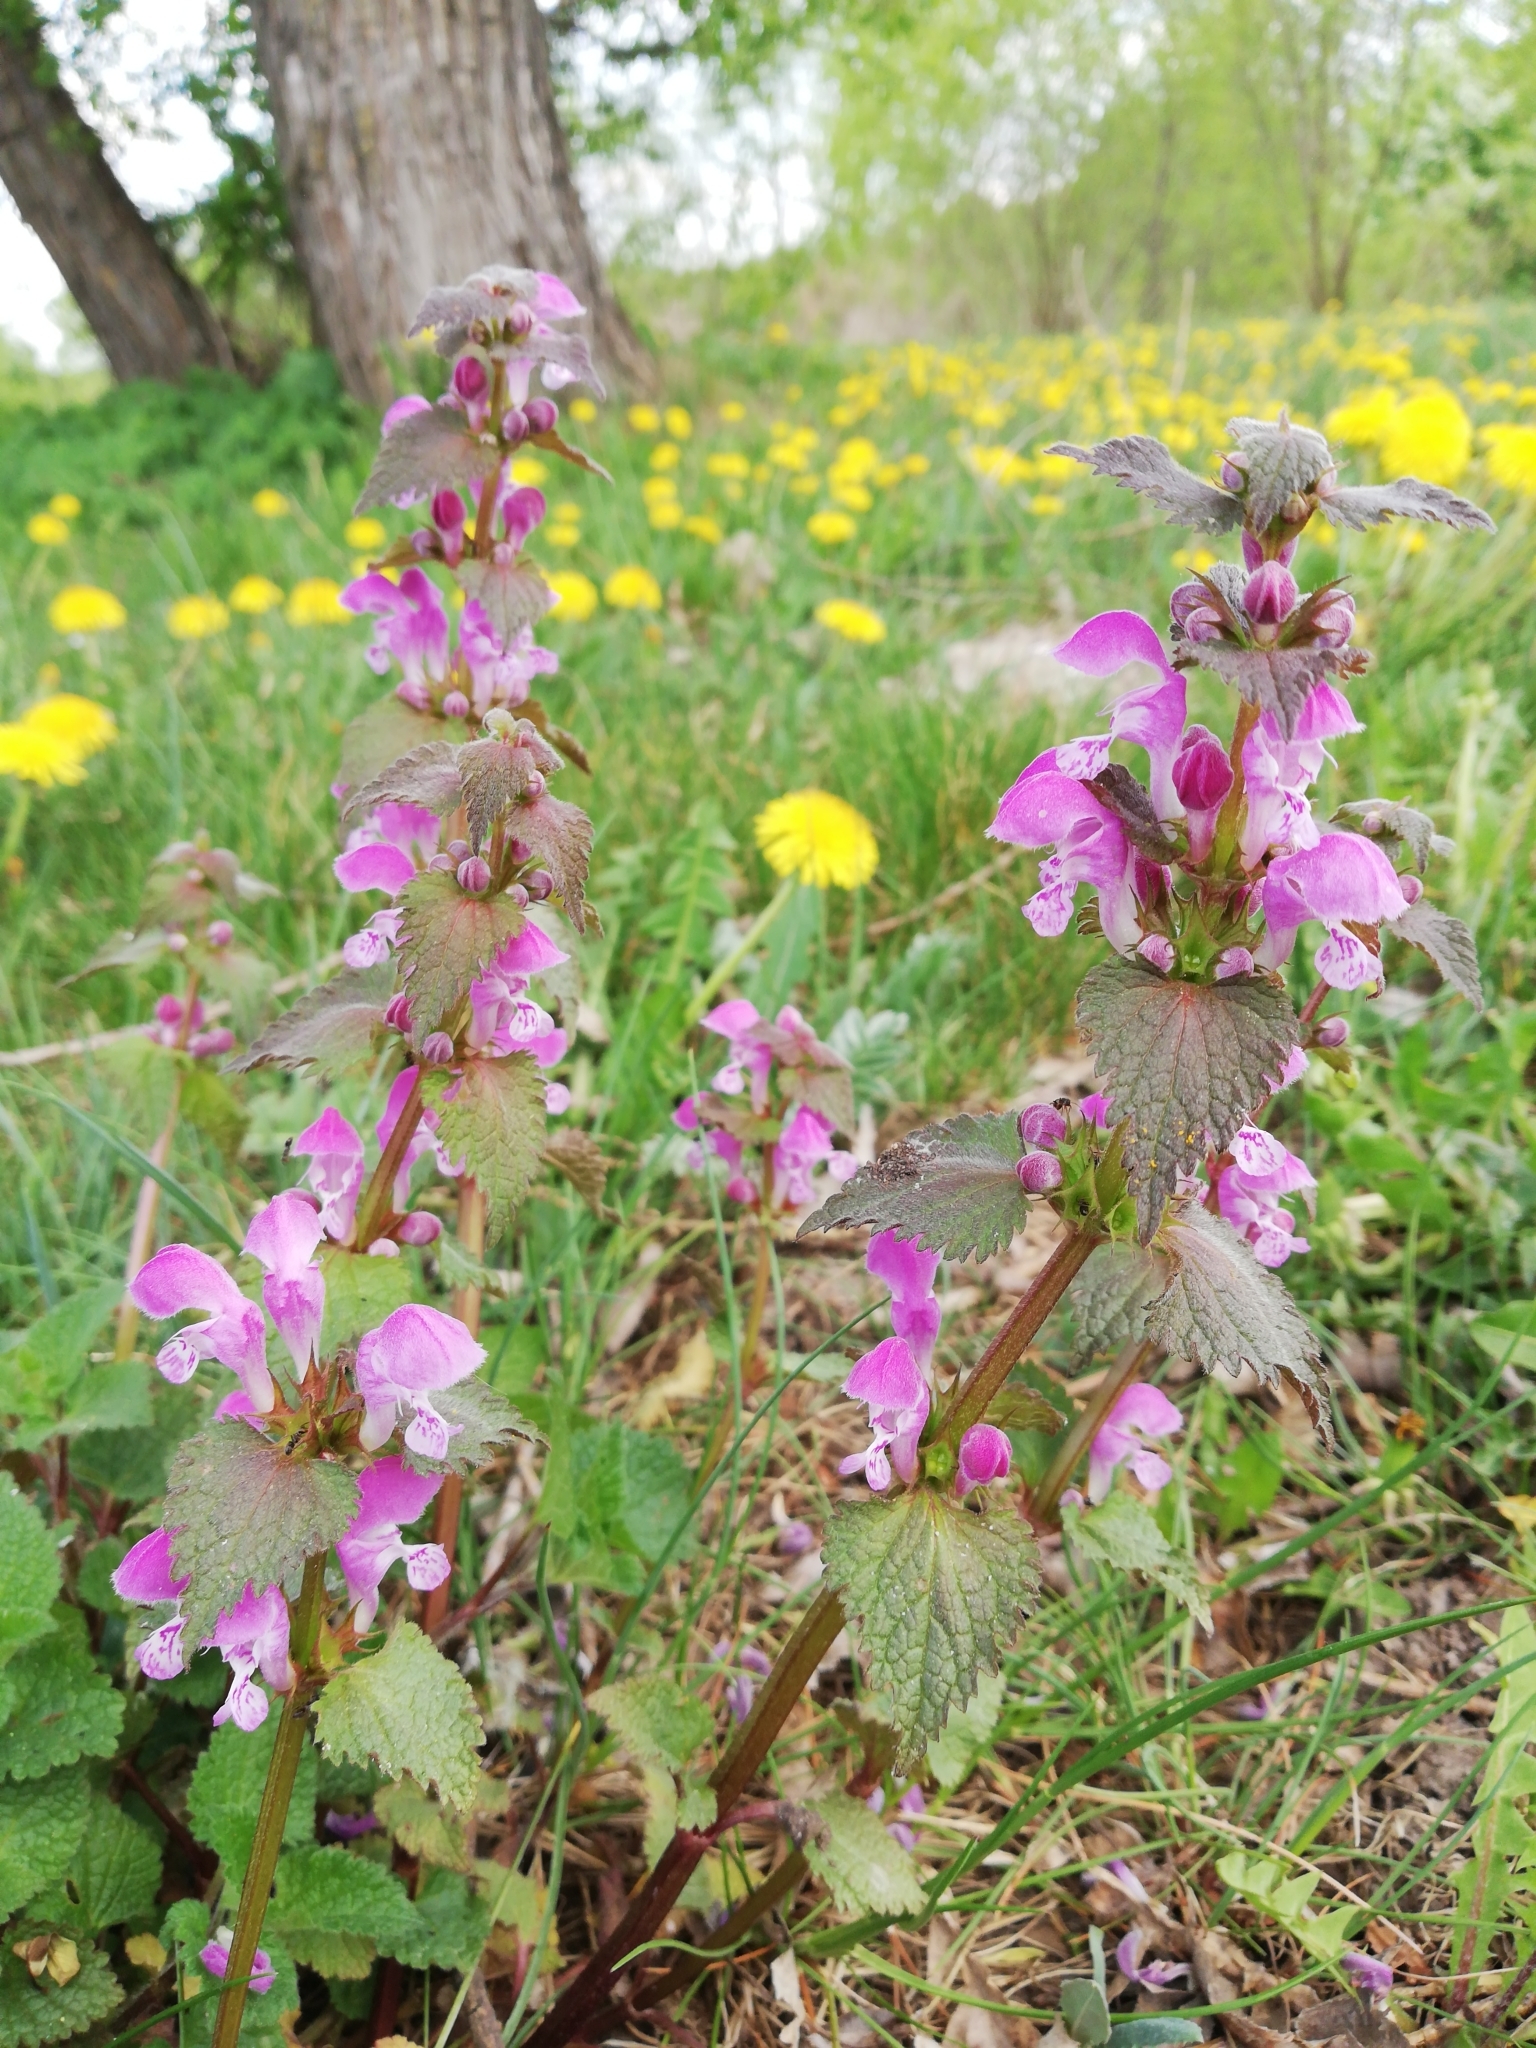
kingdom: Plantae
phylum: Tracheophyta
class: Magnoliopsida
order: Lamiales
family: Lamiaceae
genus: Lamium
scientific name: Lamium maculatum
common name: Spotted dead-nettle
